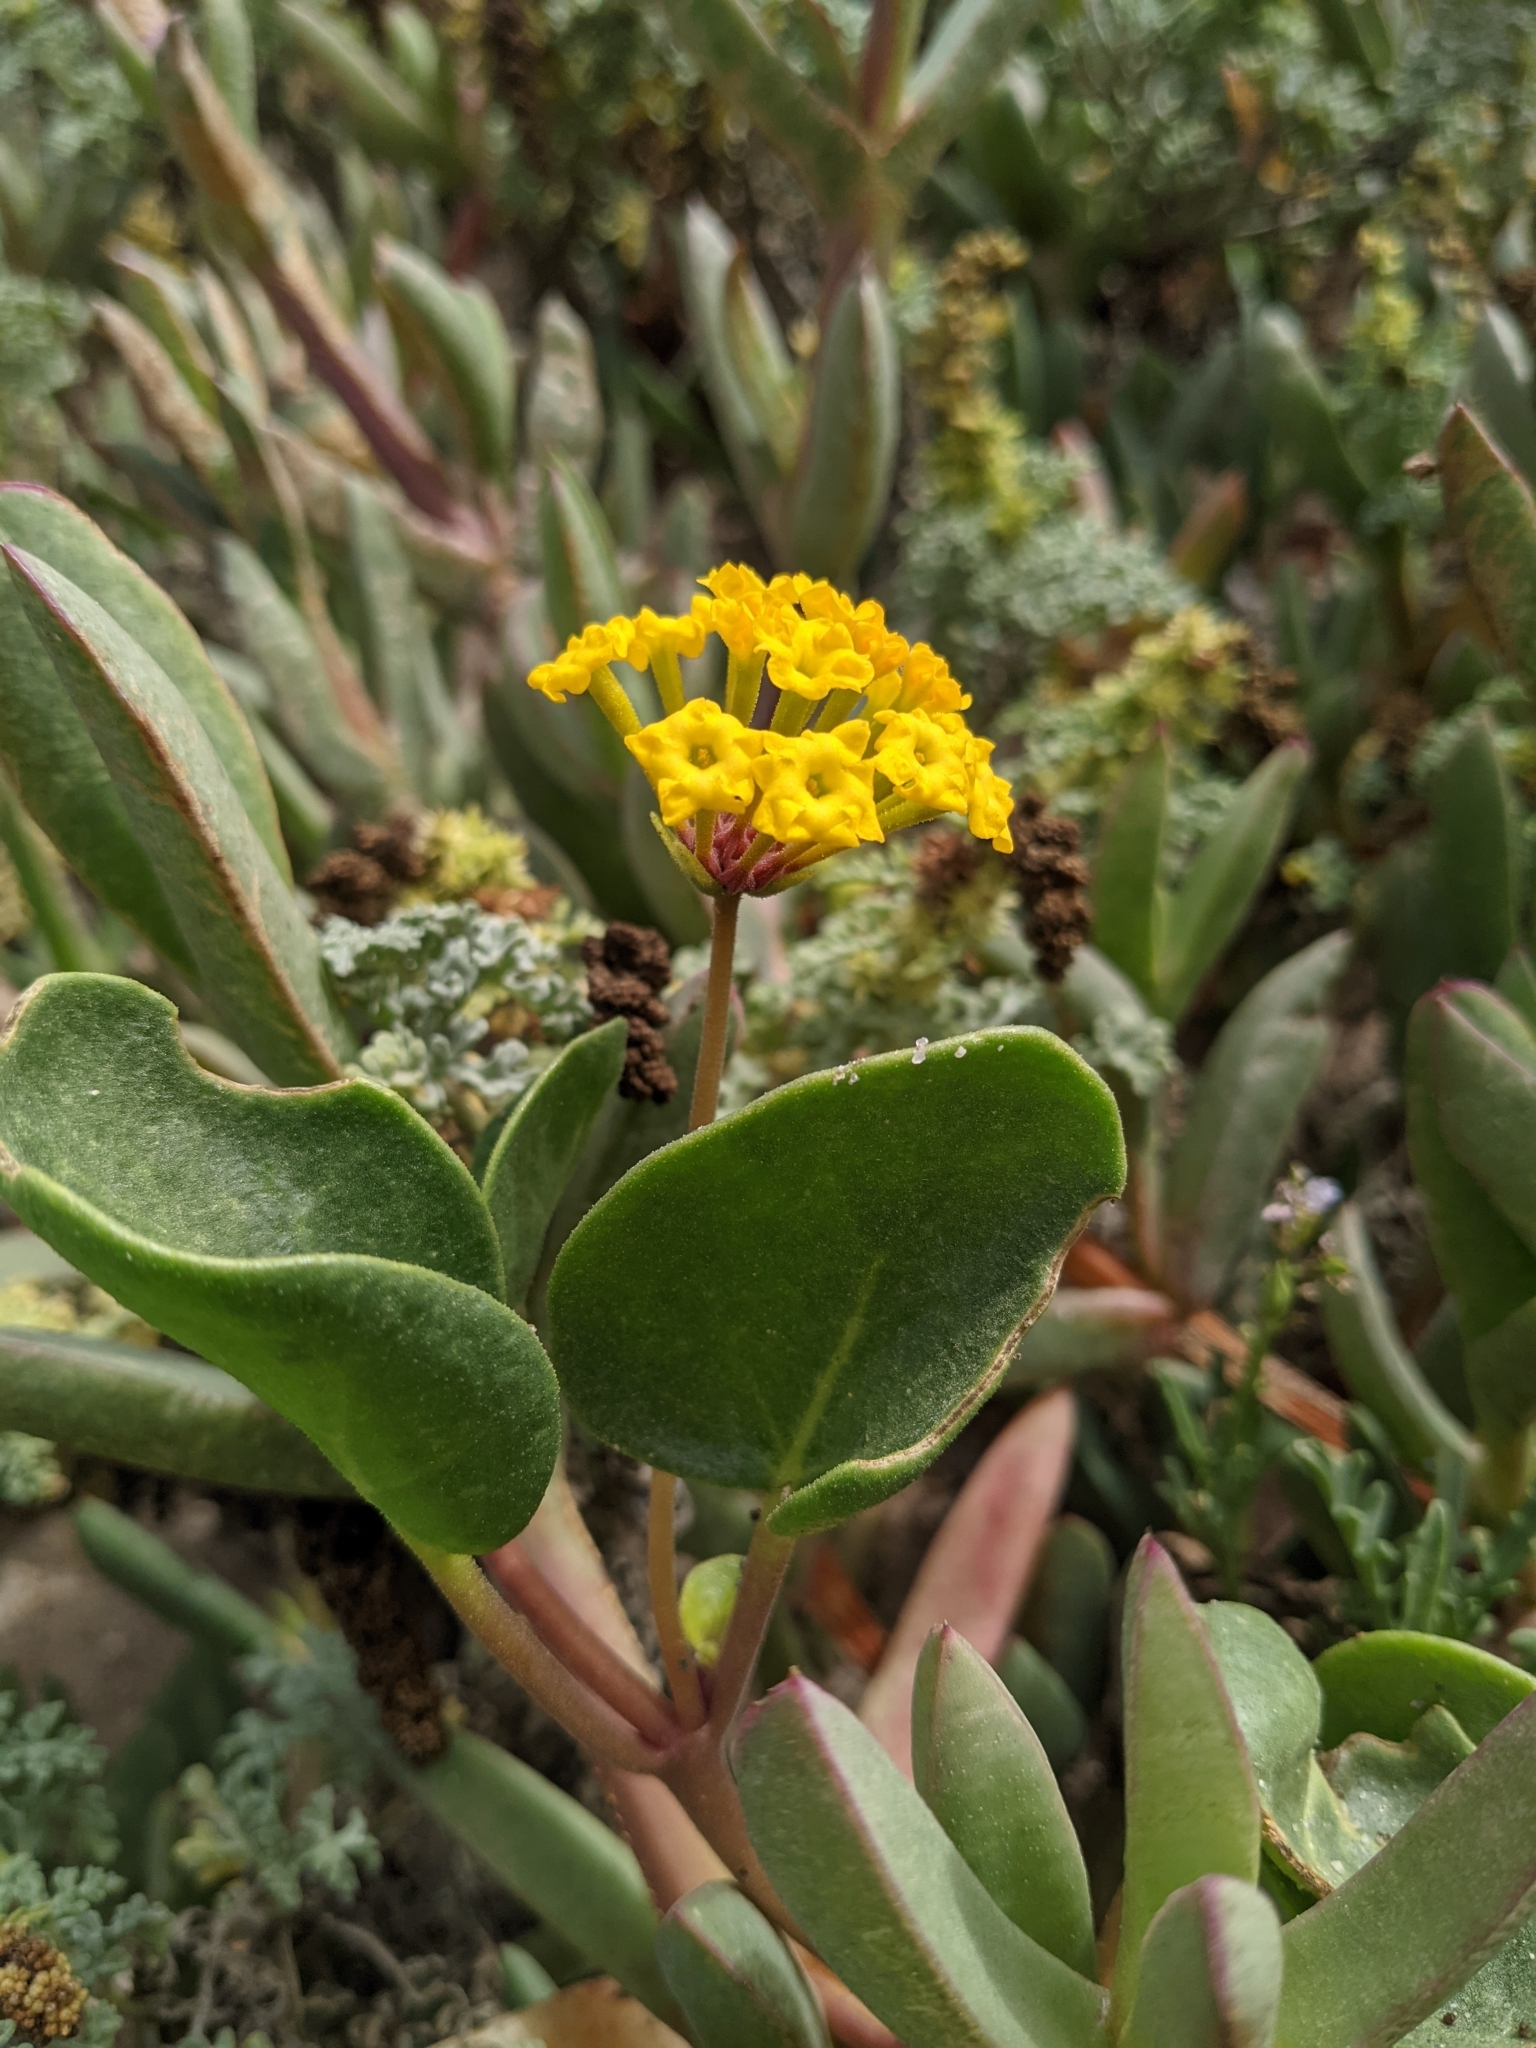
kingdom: Plantae
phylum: Tracheophyta
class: Magnoliopsida
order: Caryophyllales
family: Nyctaginaceae
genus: Abronia
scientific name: Abronia latifolia
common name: Yellow sand-verbena
